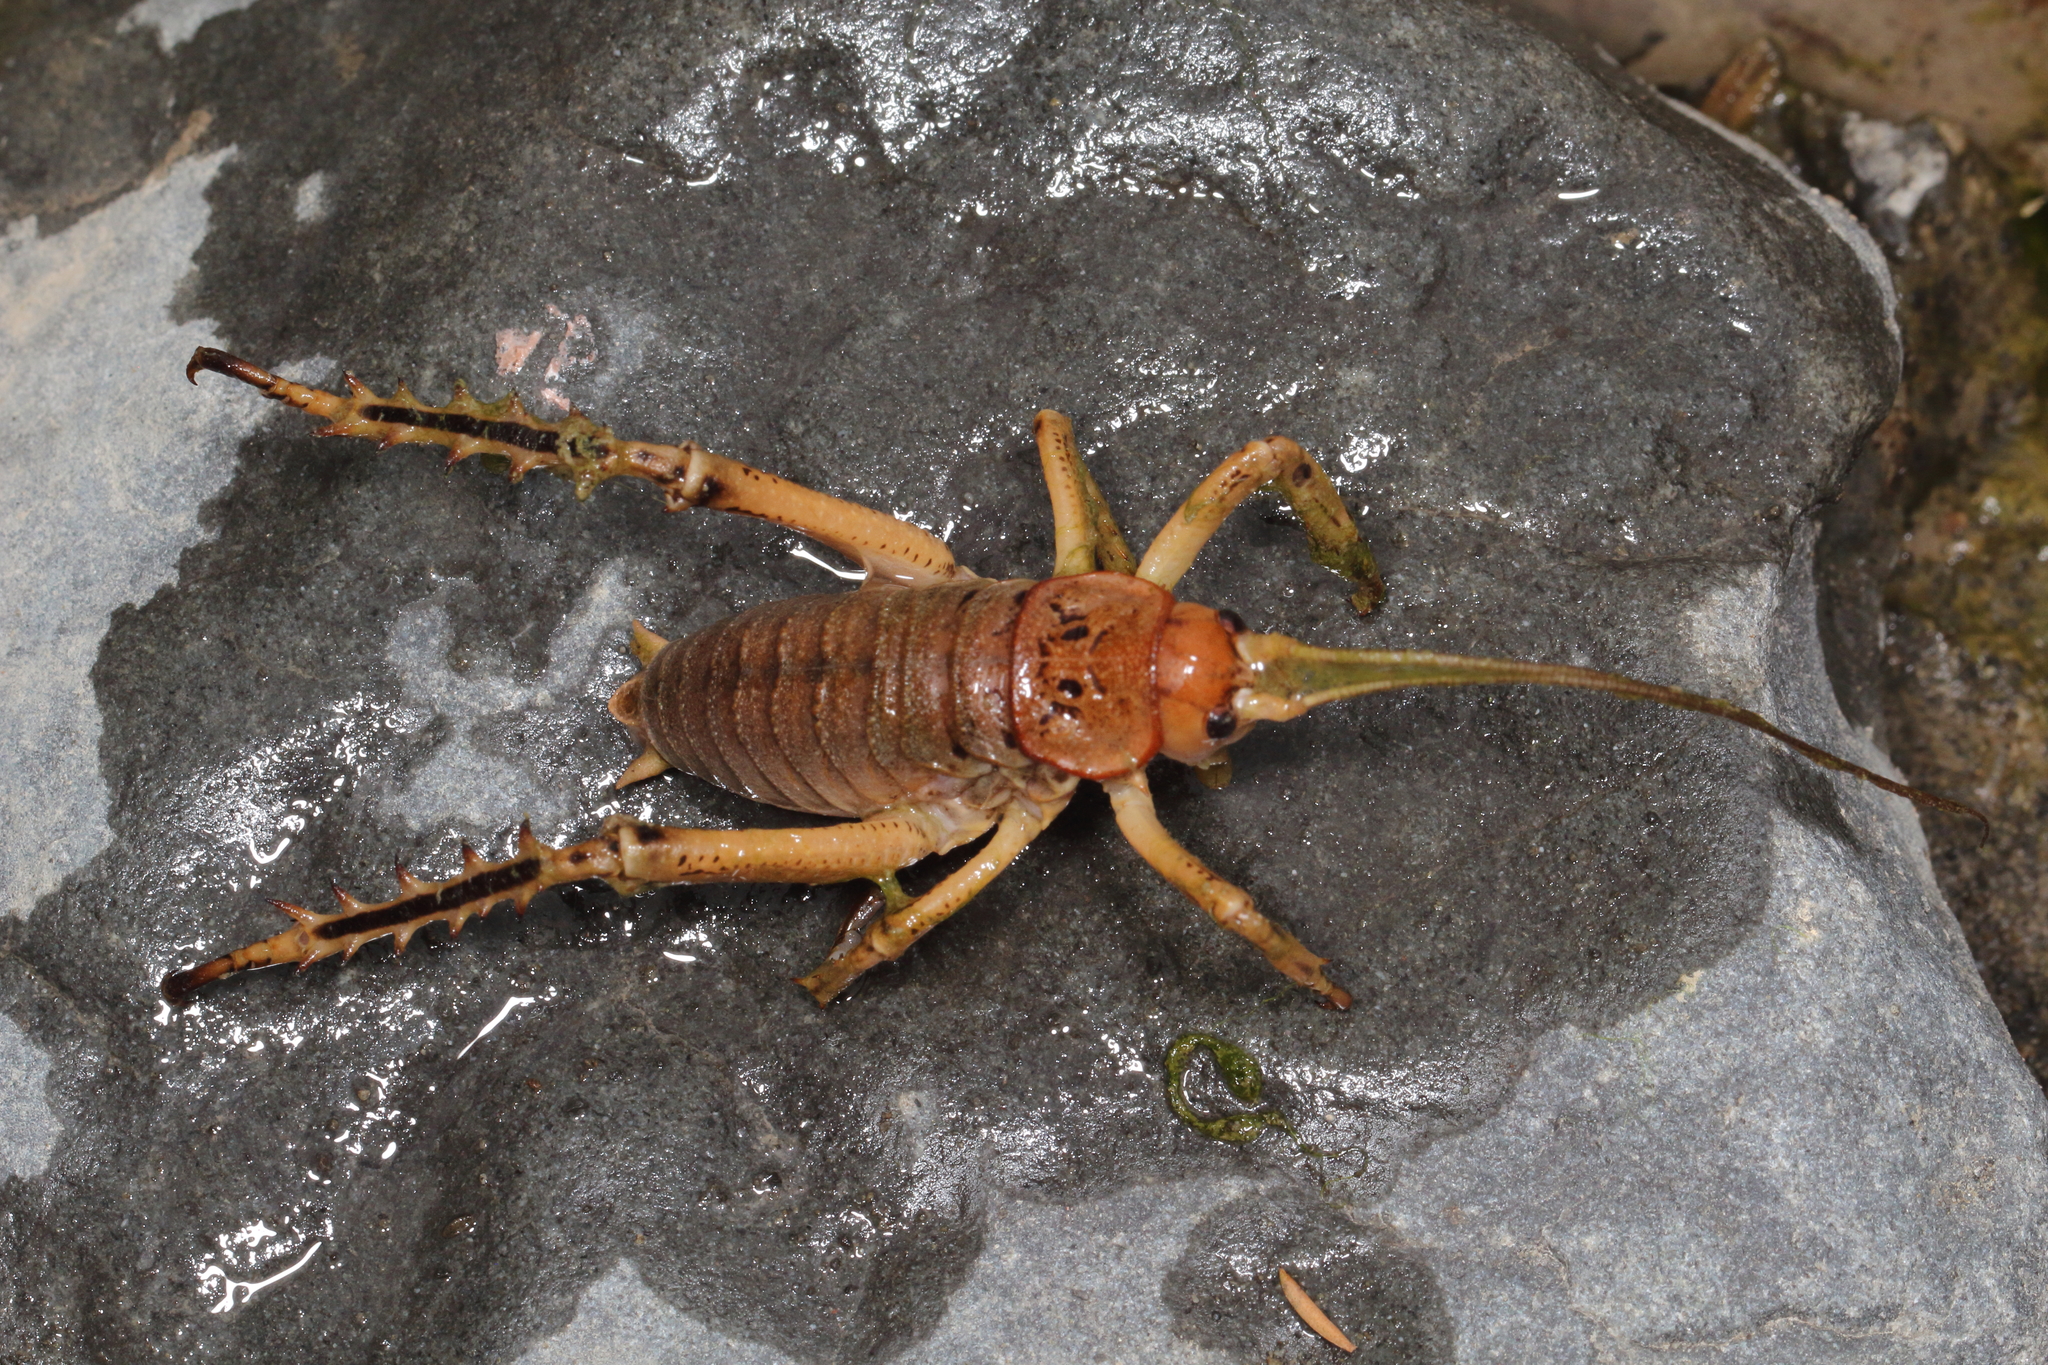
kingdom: Animalia
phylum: Arthropoda
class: Insecta
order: Orthoptera
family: Anostostomatidae
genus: Deinacrida
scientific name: Deinacrida parva
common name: Kaikoura weta
